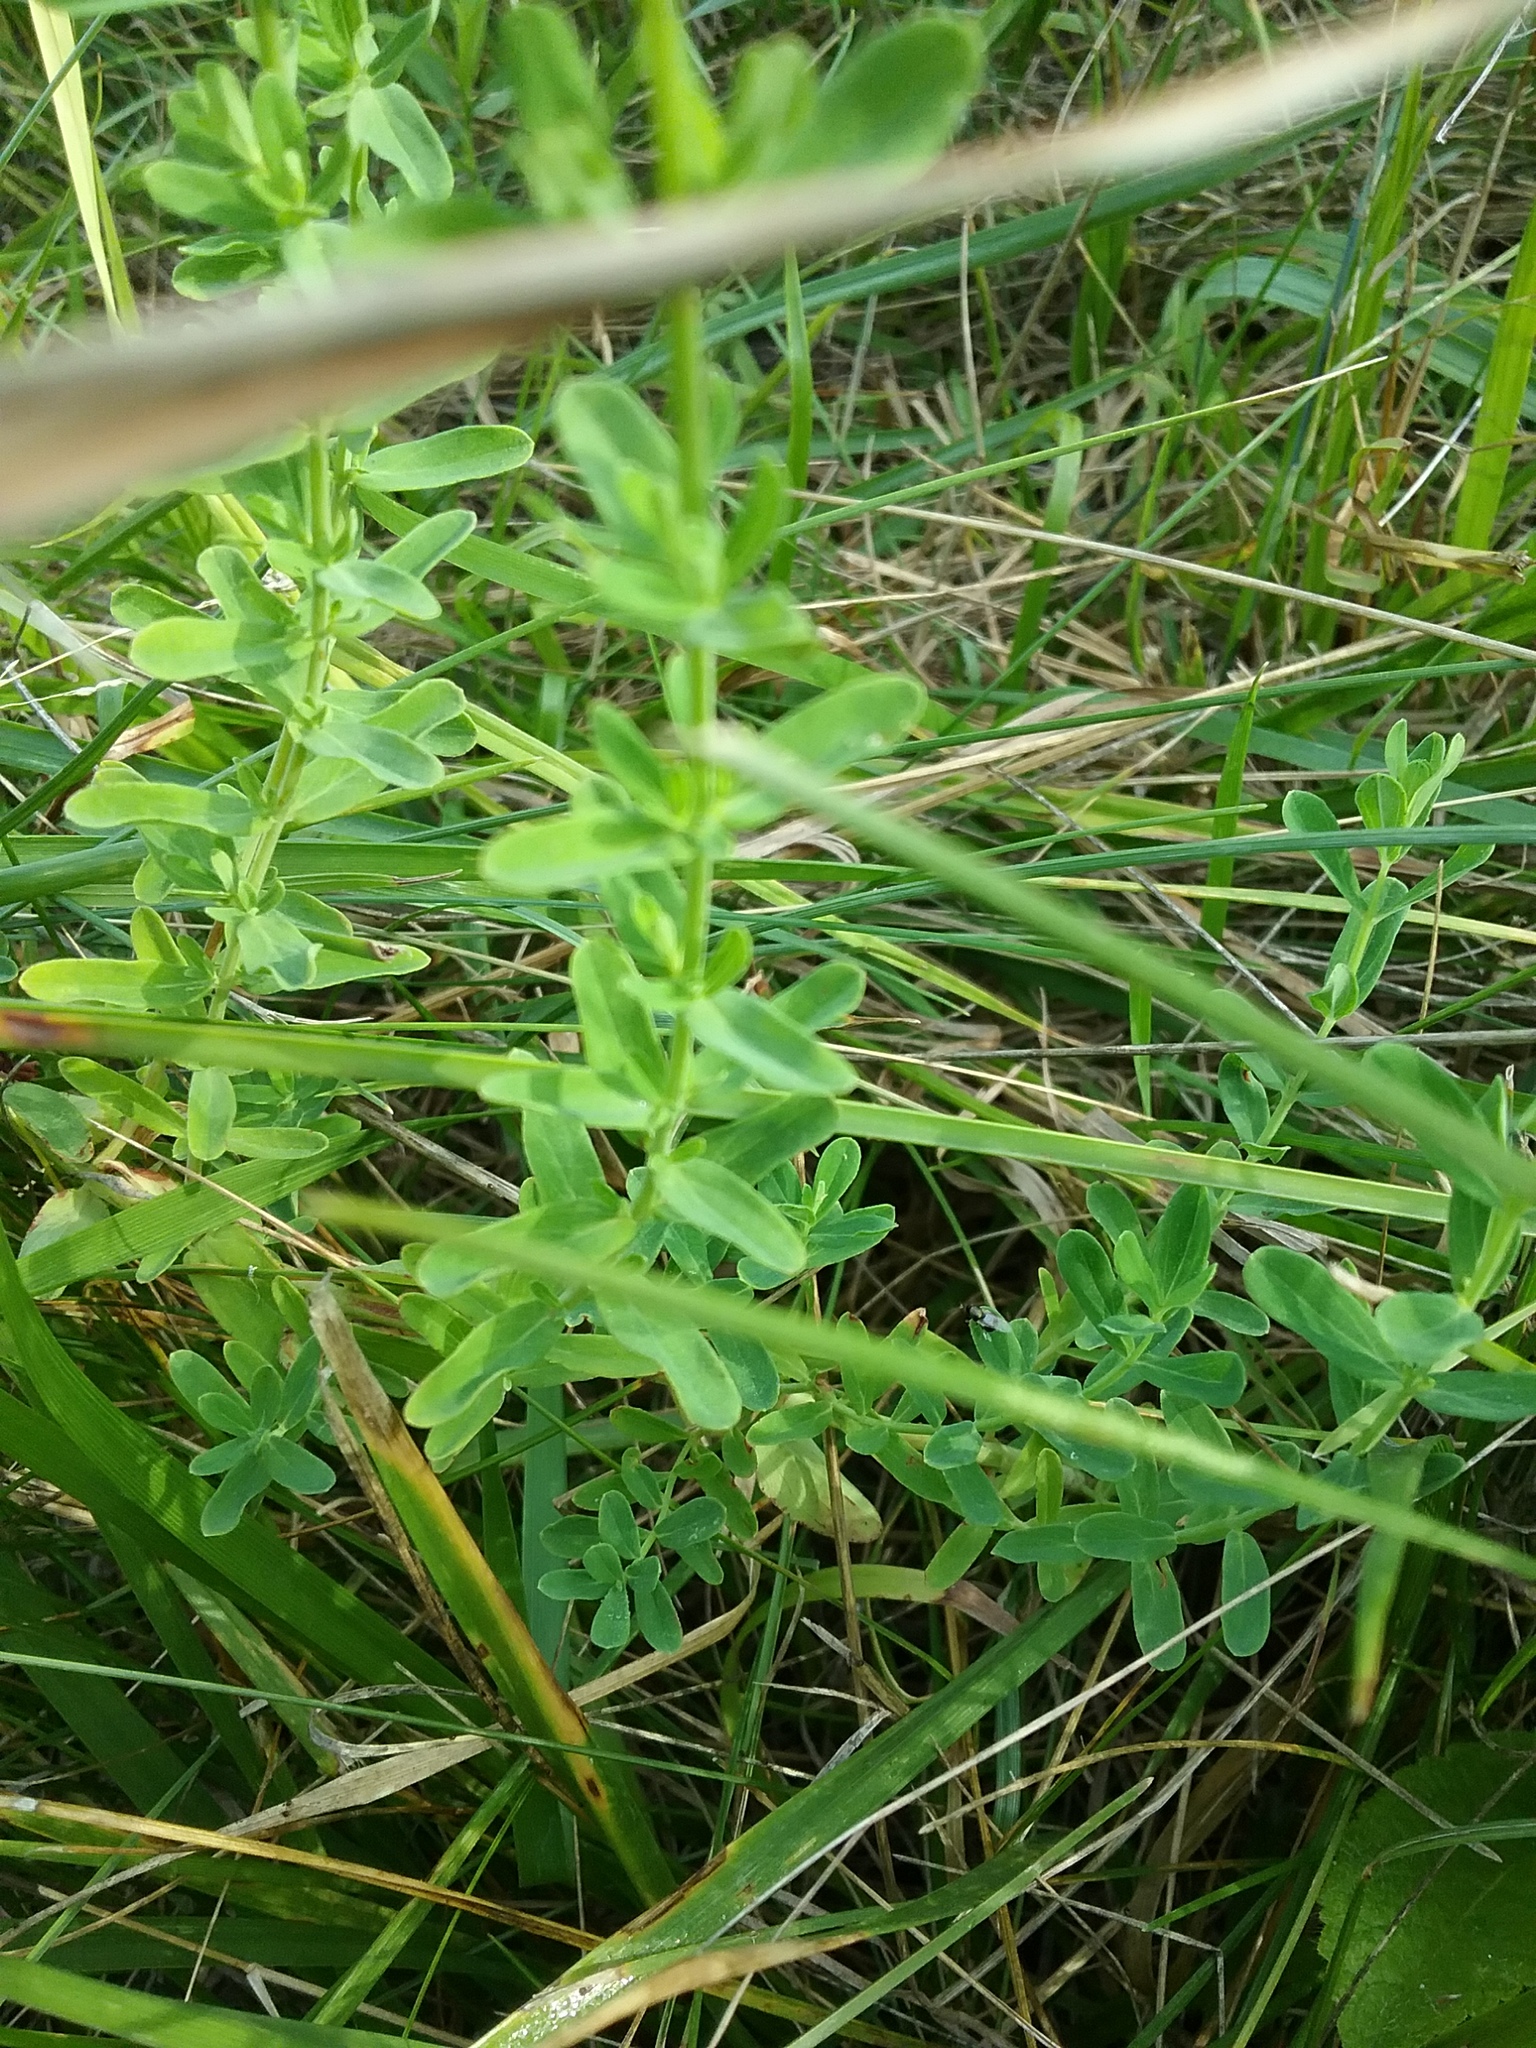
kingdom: Plantae
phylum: Tracheophyta
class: Magnoliopsida
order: Malpighiales
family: Hypericaceae
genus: Hypericum
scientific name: Hypericum perforatum
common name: Common st. johnswort
